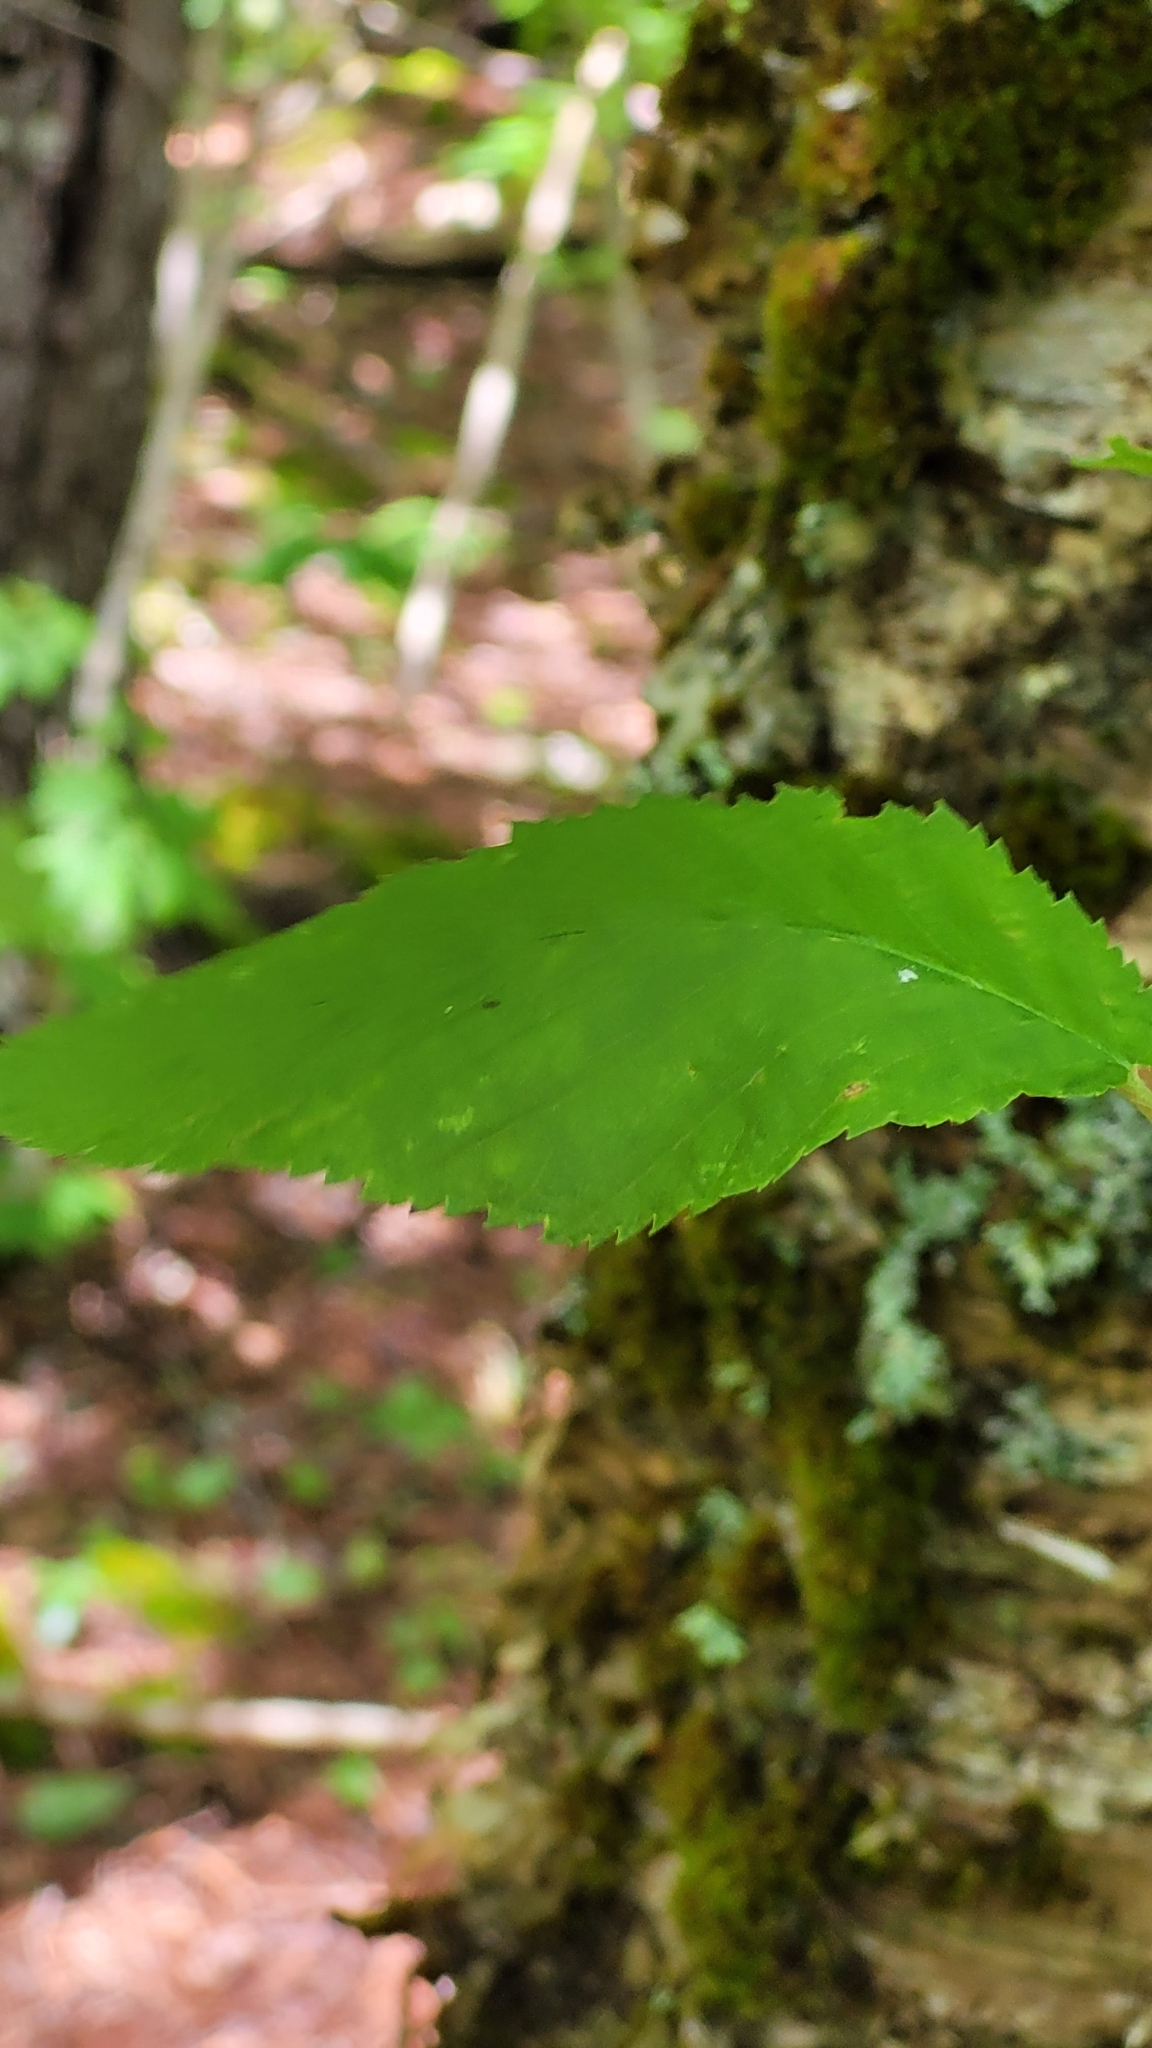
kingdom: Plantae
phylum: Tracheophyta
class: Magnoliopsida
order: Fagales
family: Betulaceae
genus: Betula
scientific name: Betula alleghaniensis
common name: Yellow birch
